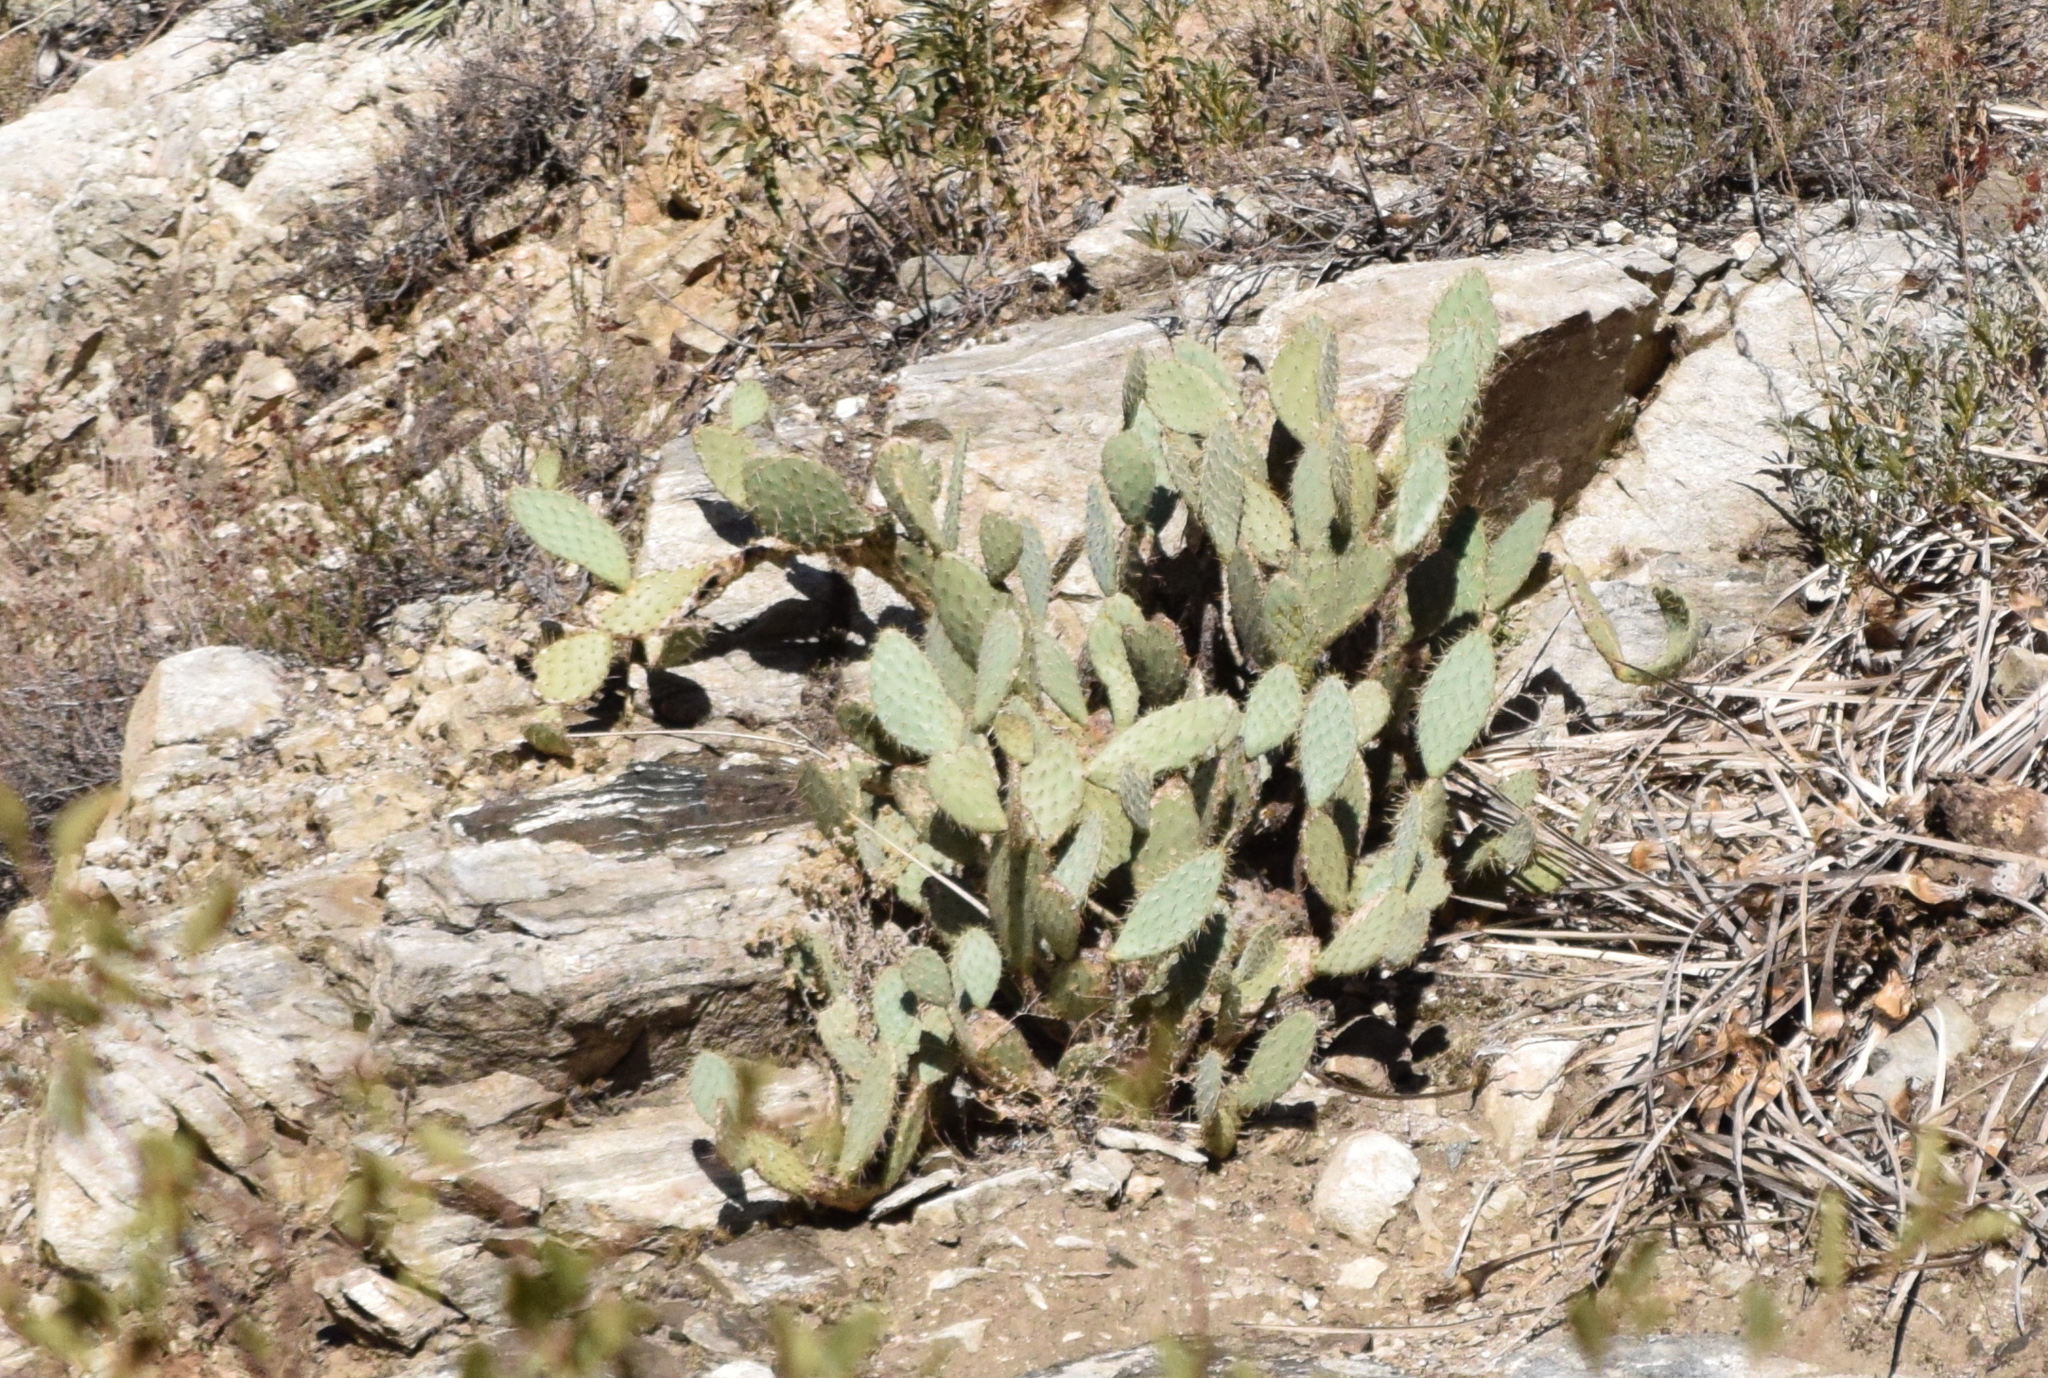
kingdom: Plantae
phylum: Tracheophyta
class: Magnoliopsida
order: Caryophyllales
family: Cactaceae
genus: Opuntia
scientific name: Opuntia littoralis
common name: Coastal prickly-pear
